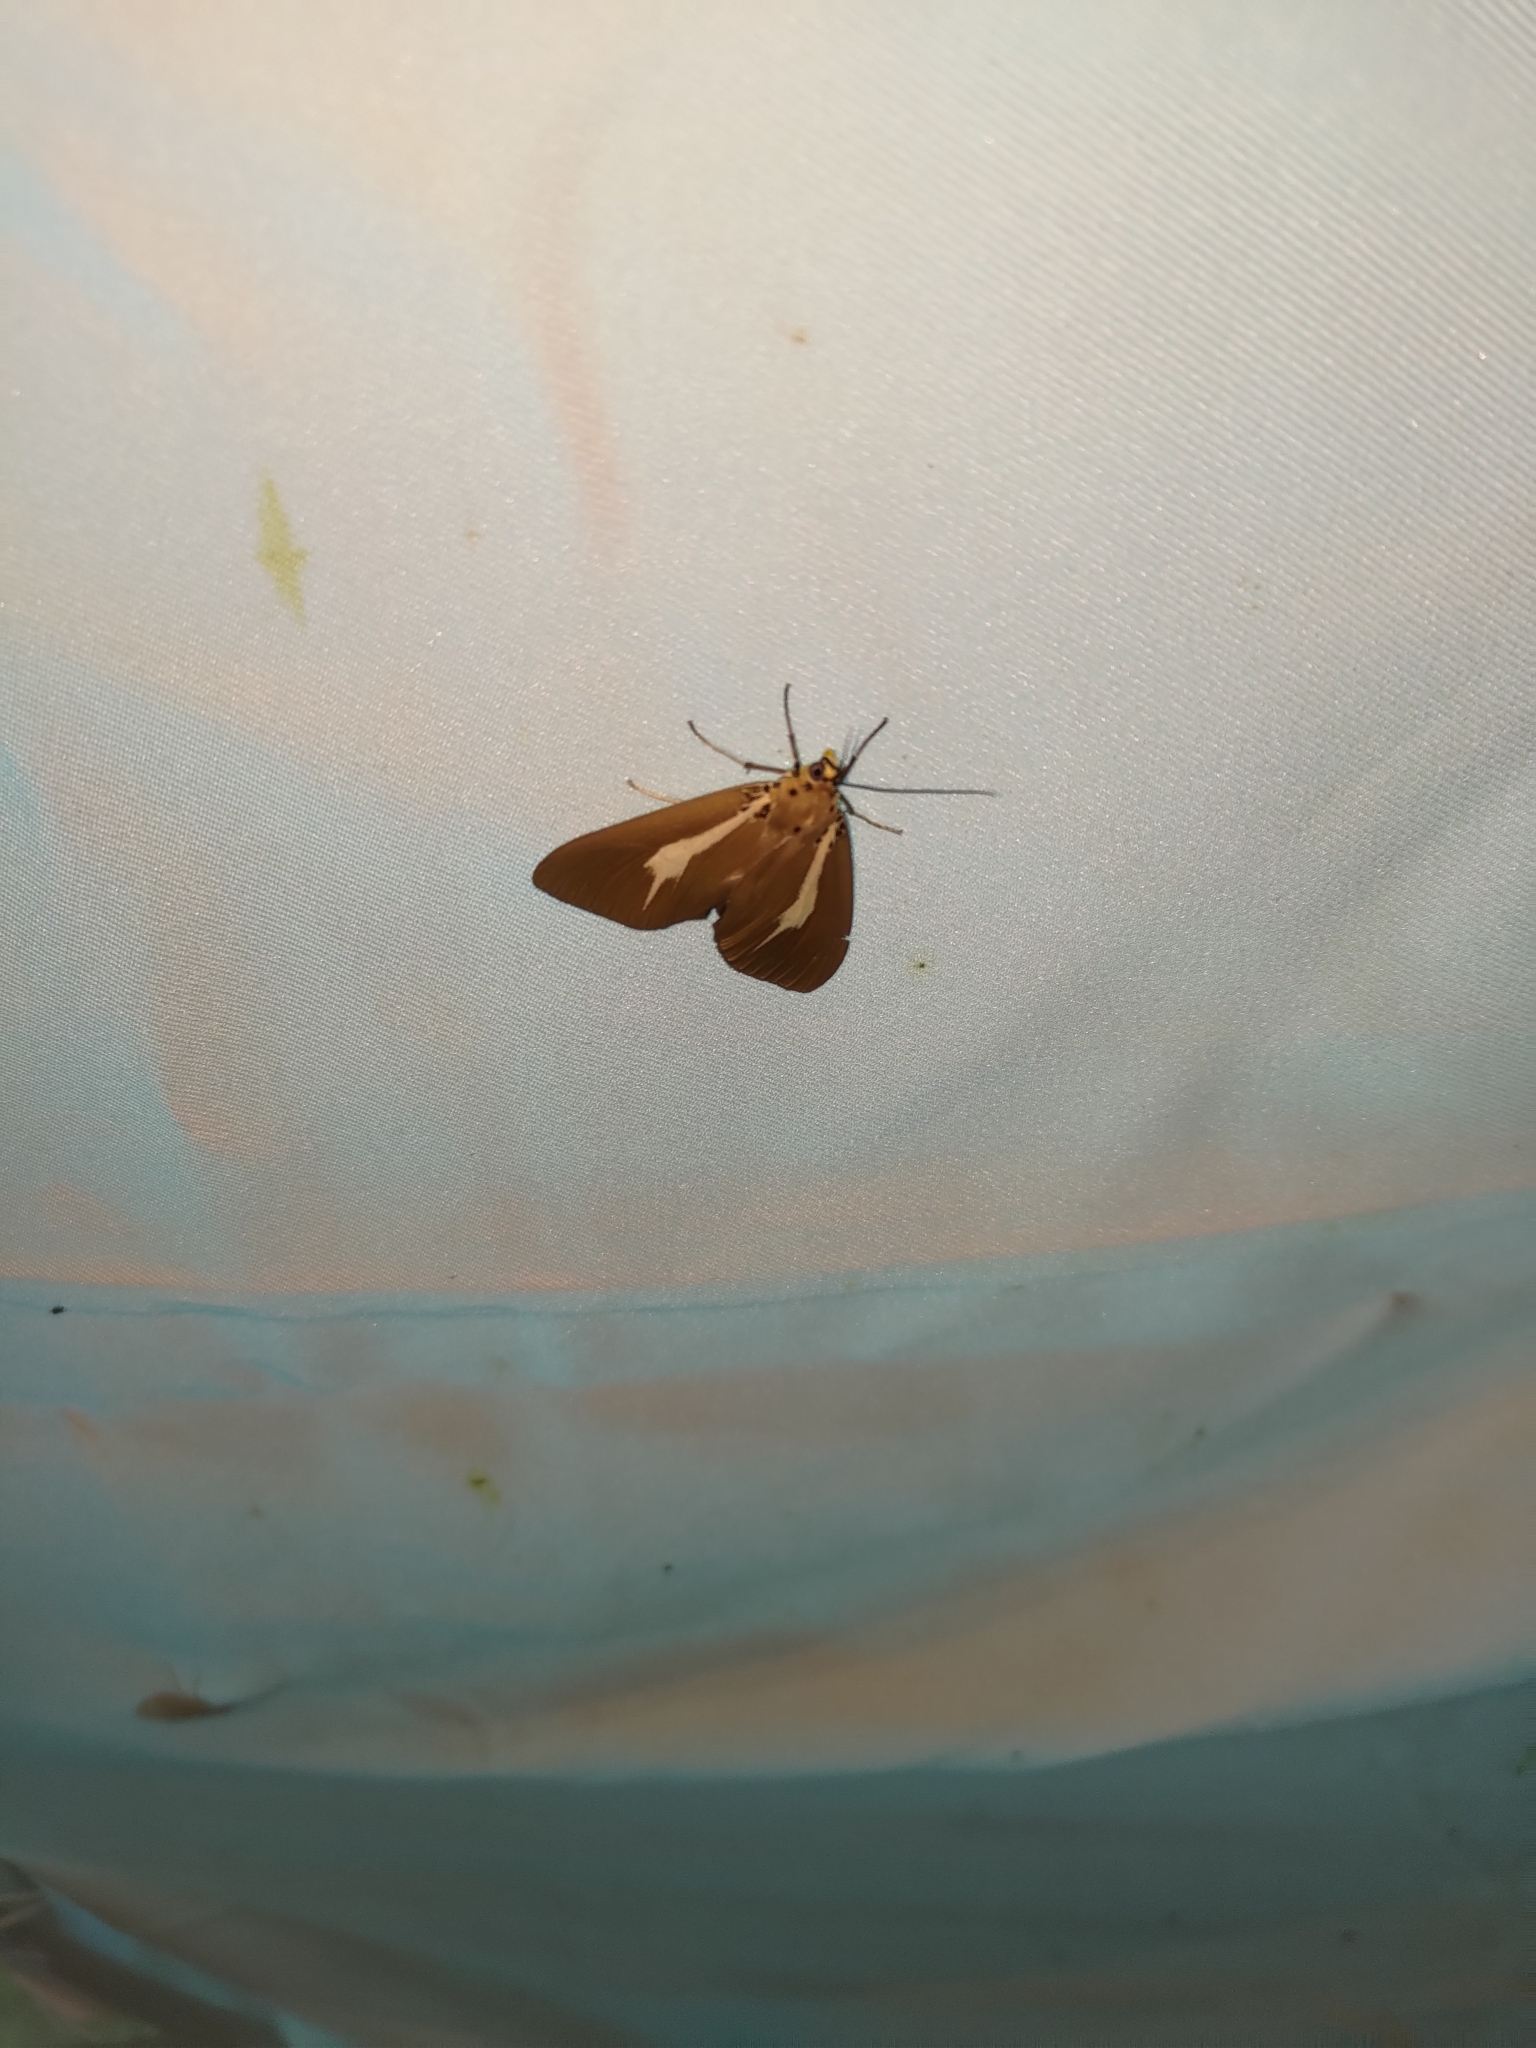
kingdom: Animalia
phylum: Arthropoda
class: Insecta
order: Lepidoptera
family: Erebidae
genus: Asota
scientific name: Asota heliconia
